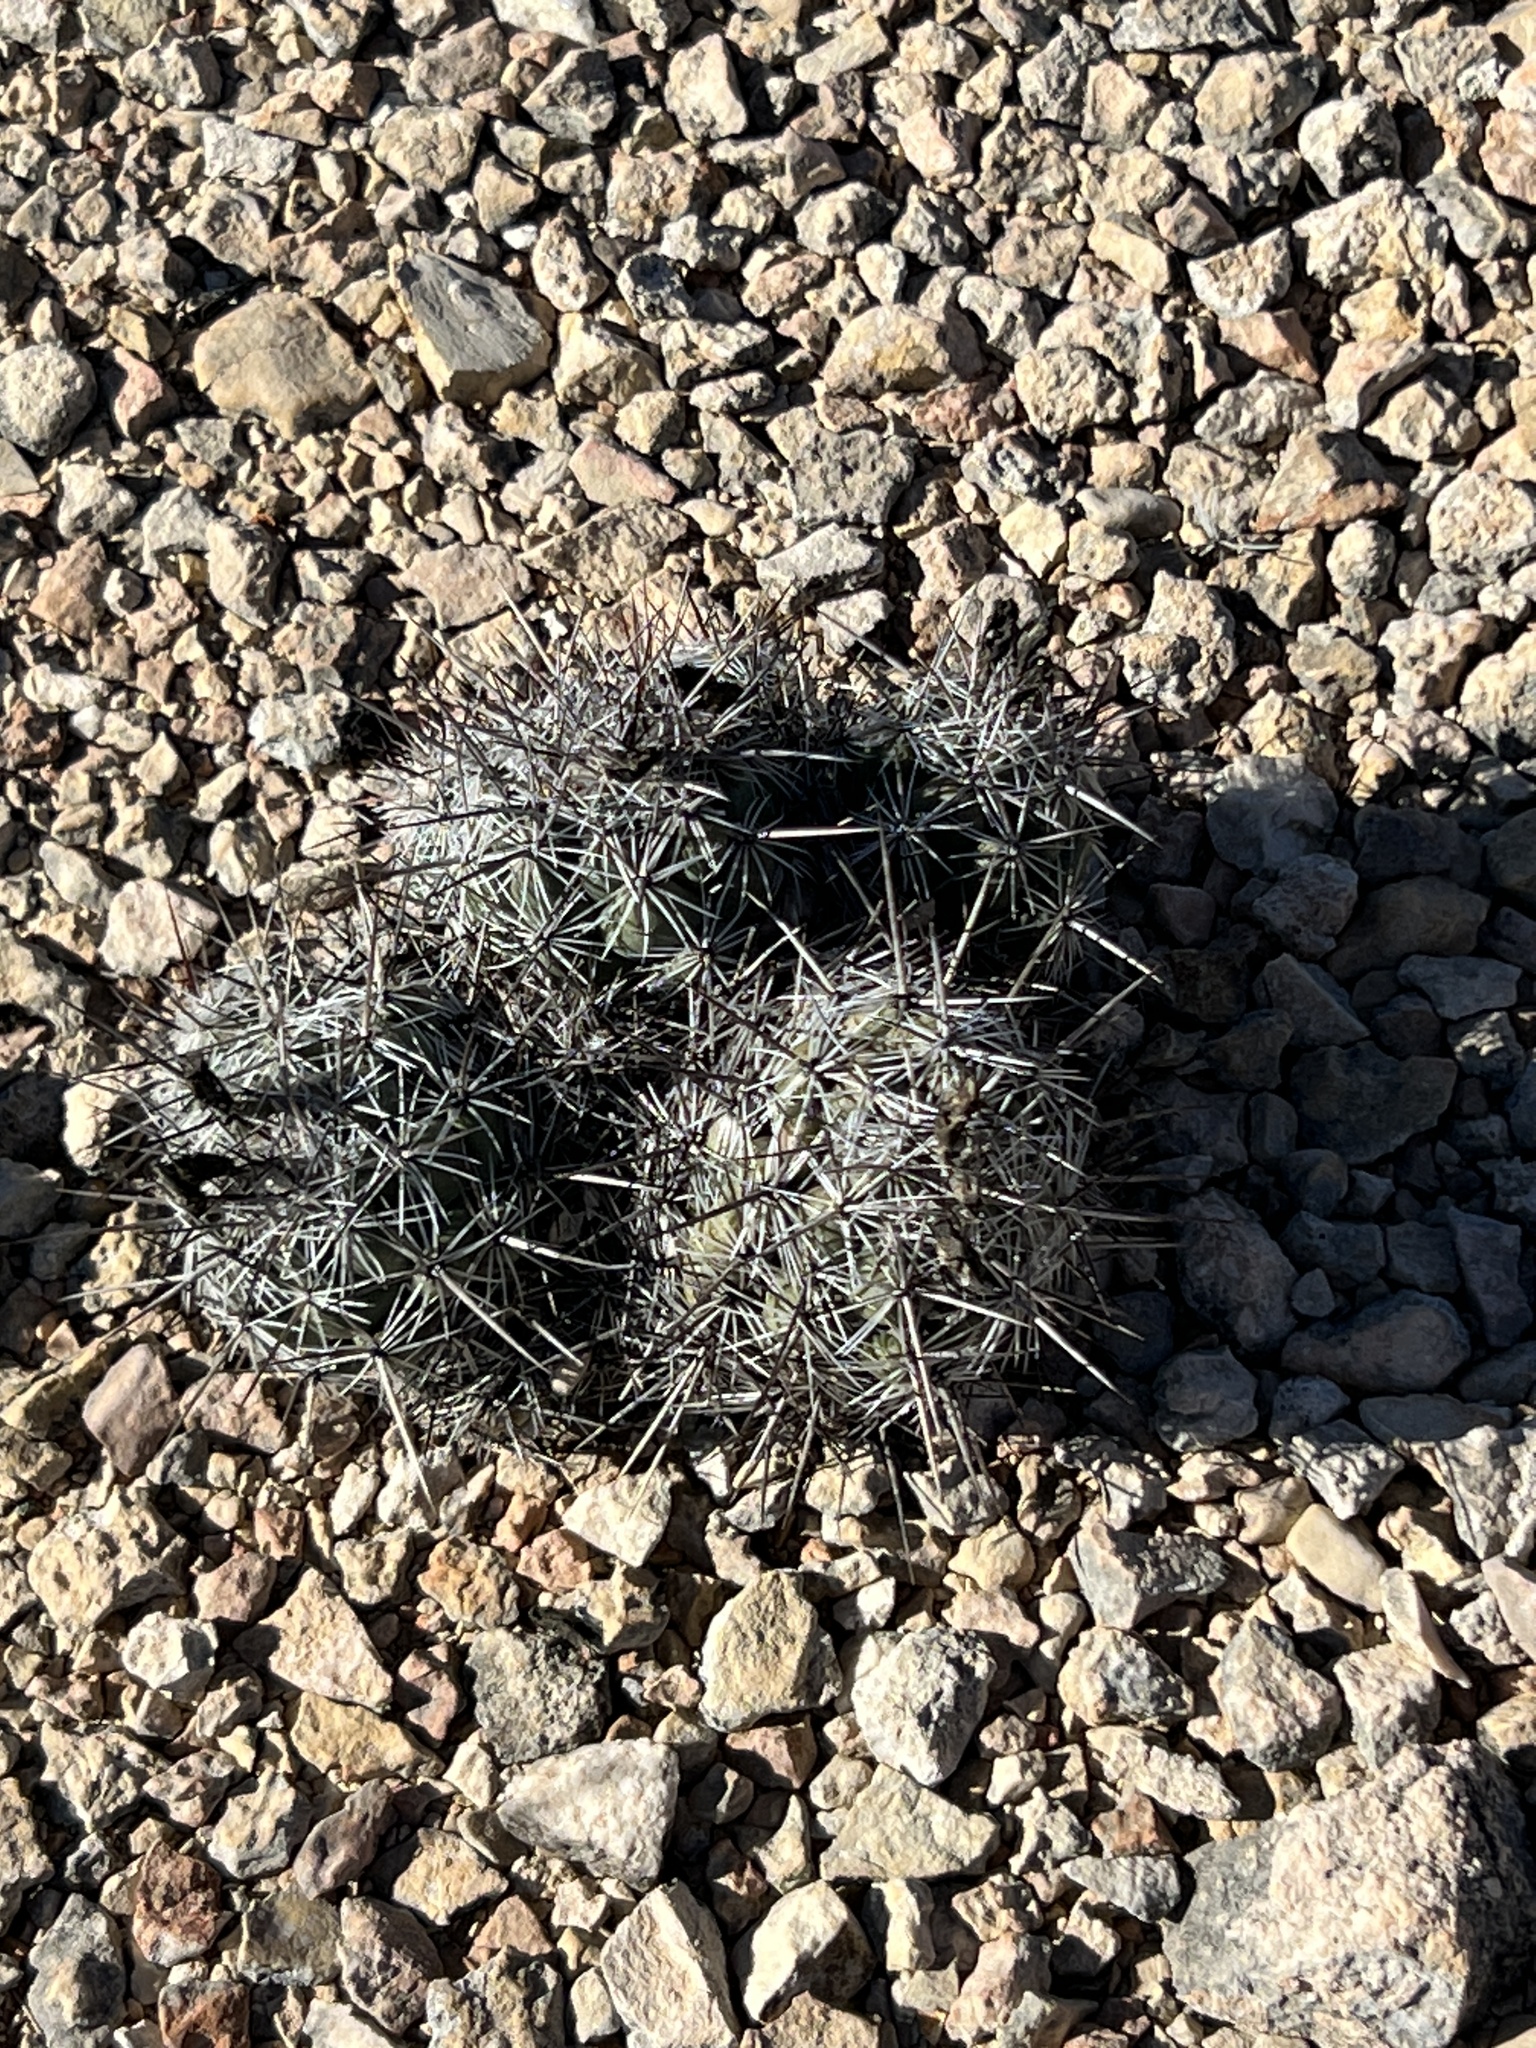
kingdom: Plantae
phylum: Tracheophyta
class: Magnoliopsida
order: Caryophyllales
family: Cactaceae
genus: Cochemiea
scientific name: Cochemiea conoidea
